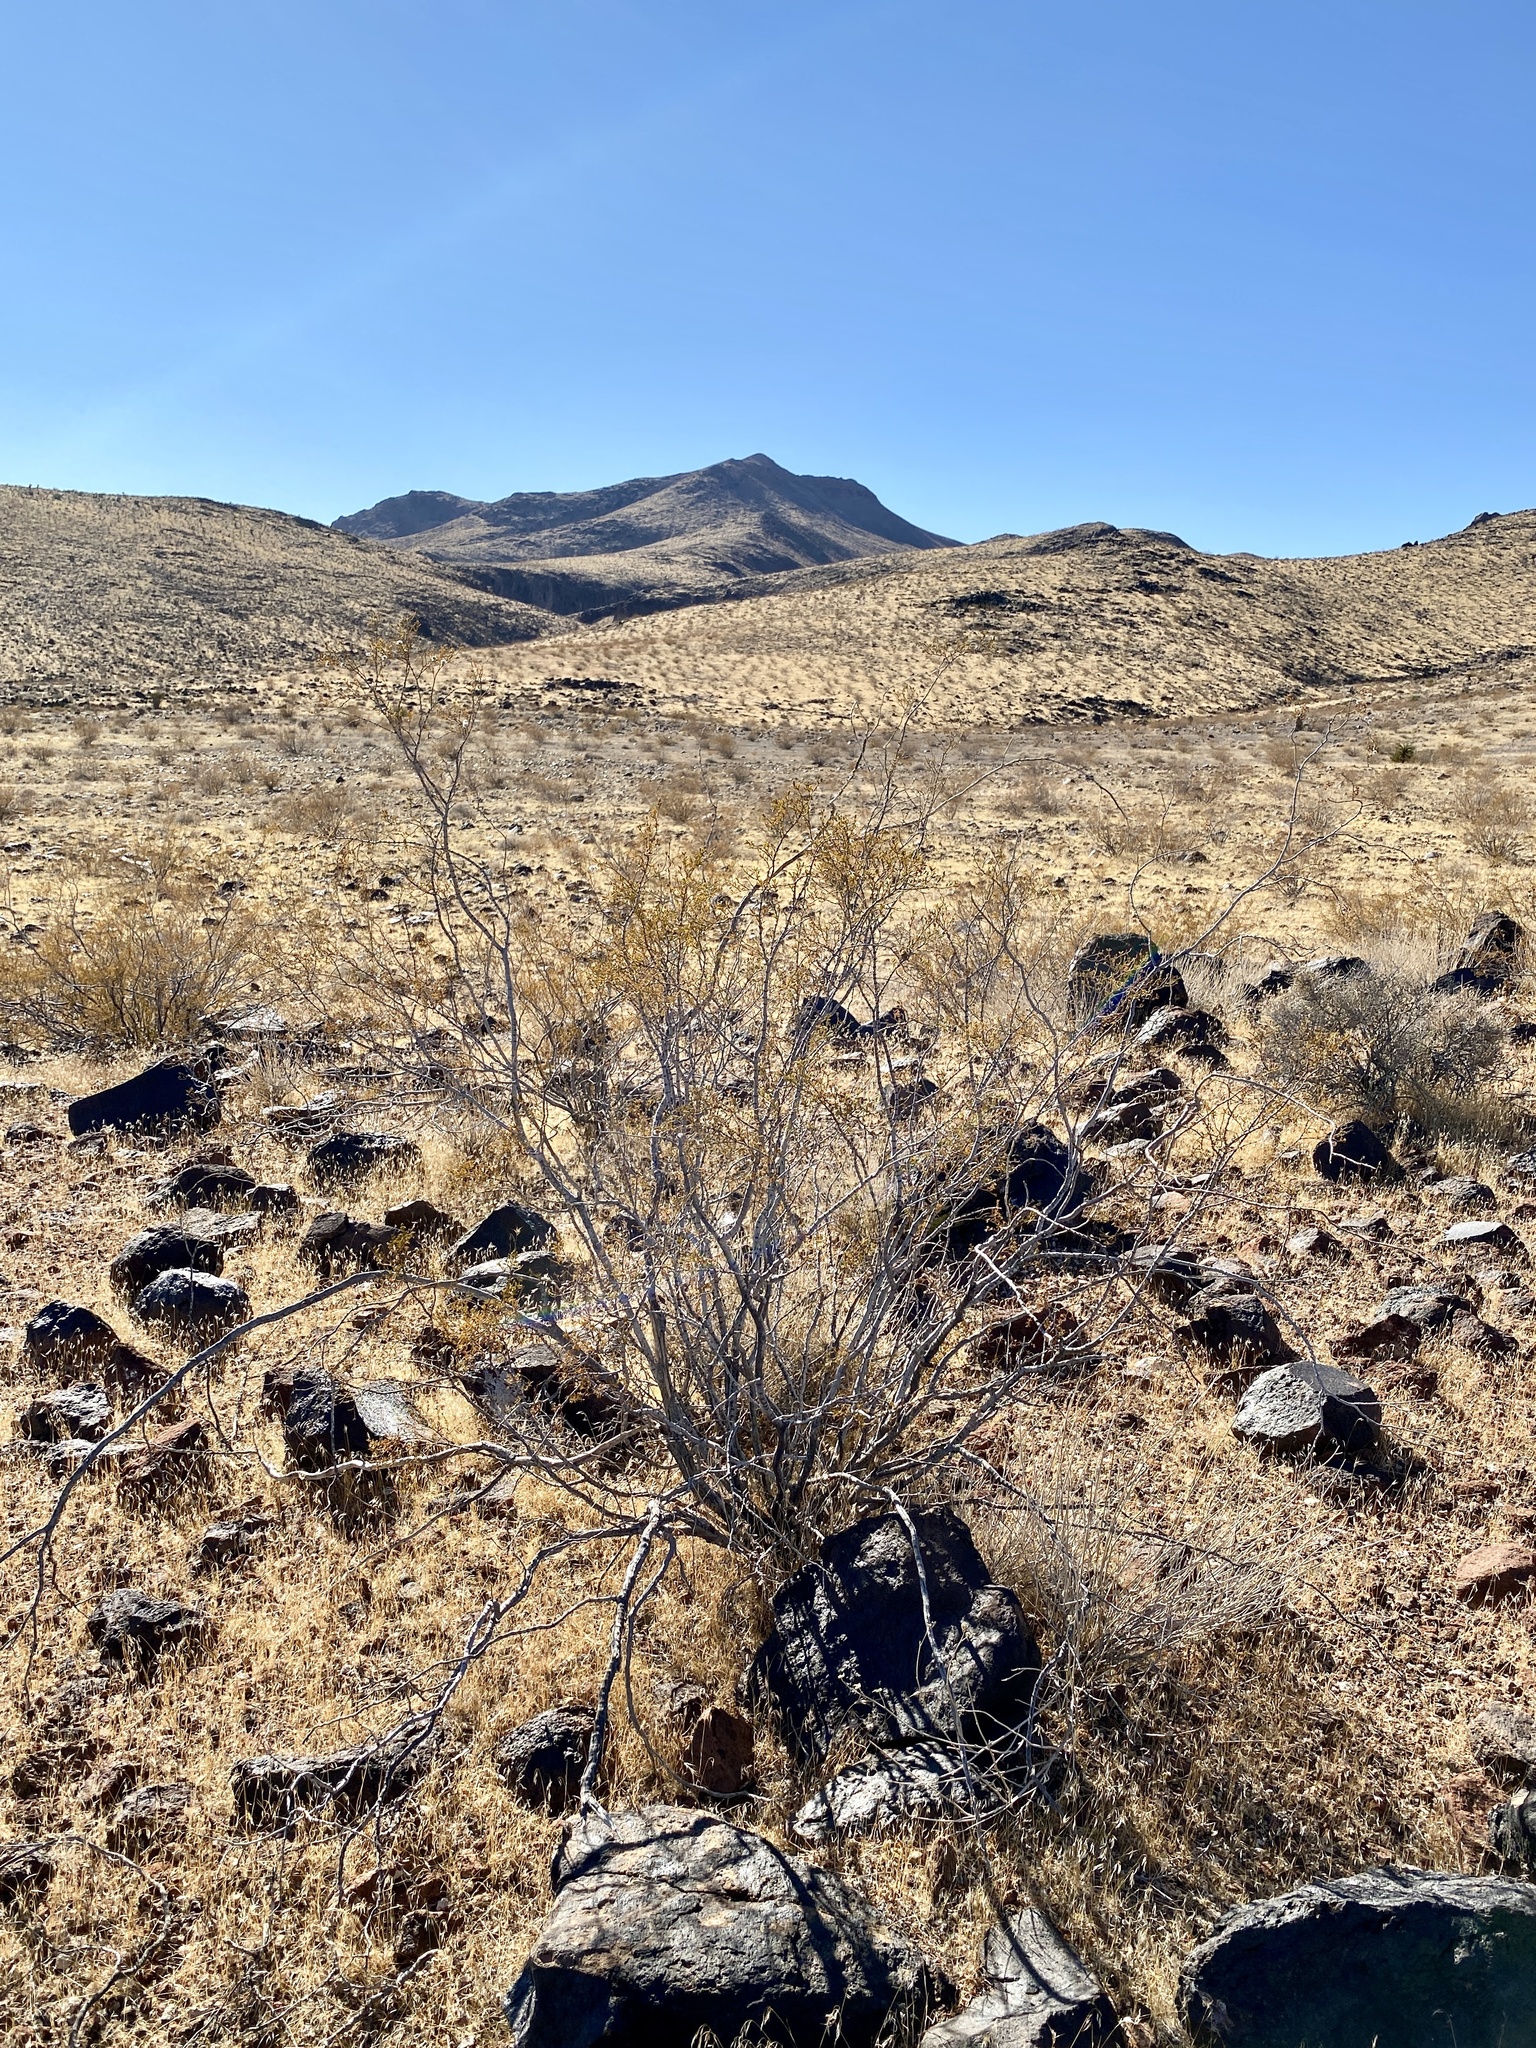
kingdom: Plantae
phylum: Tracheophyta
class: Magnoliopsida
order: Zygophyllales
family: Zygophyllaceae
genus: Larrea
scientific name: Larrea tridentata
